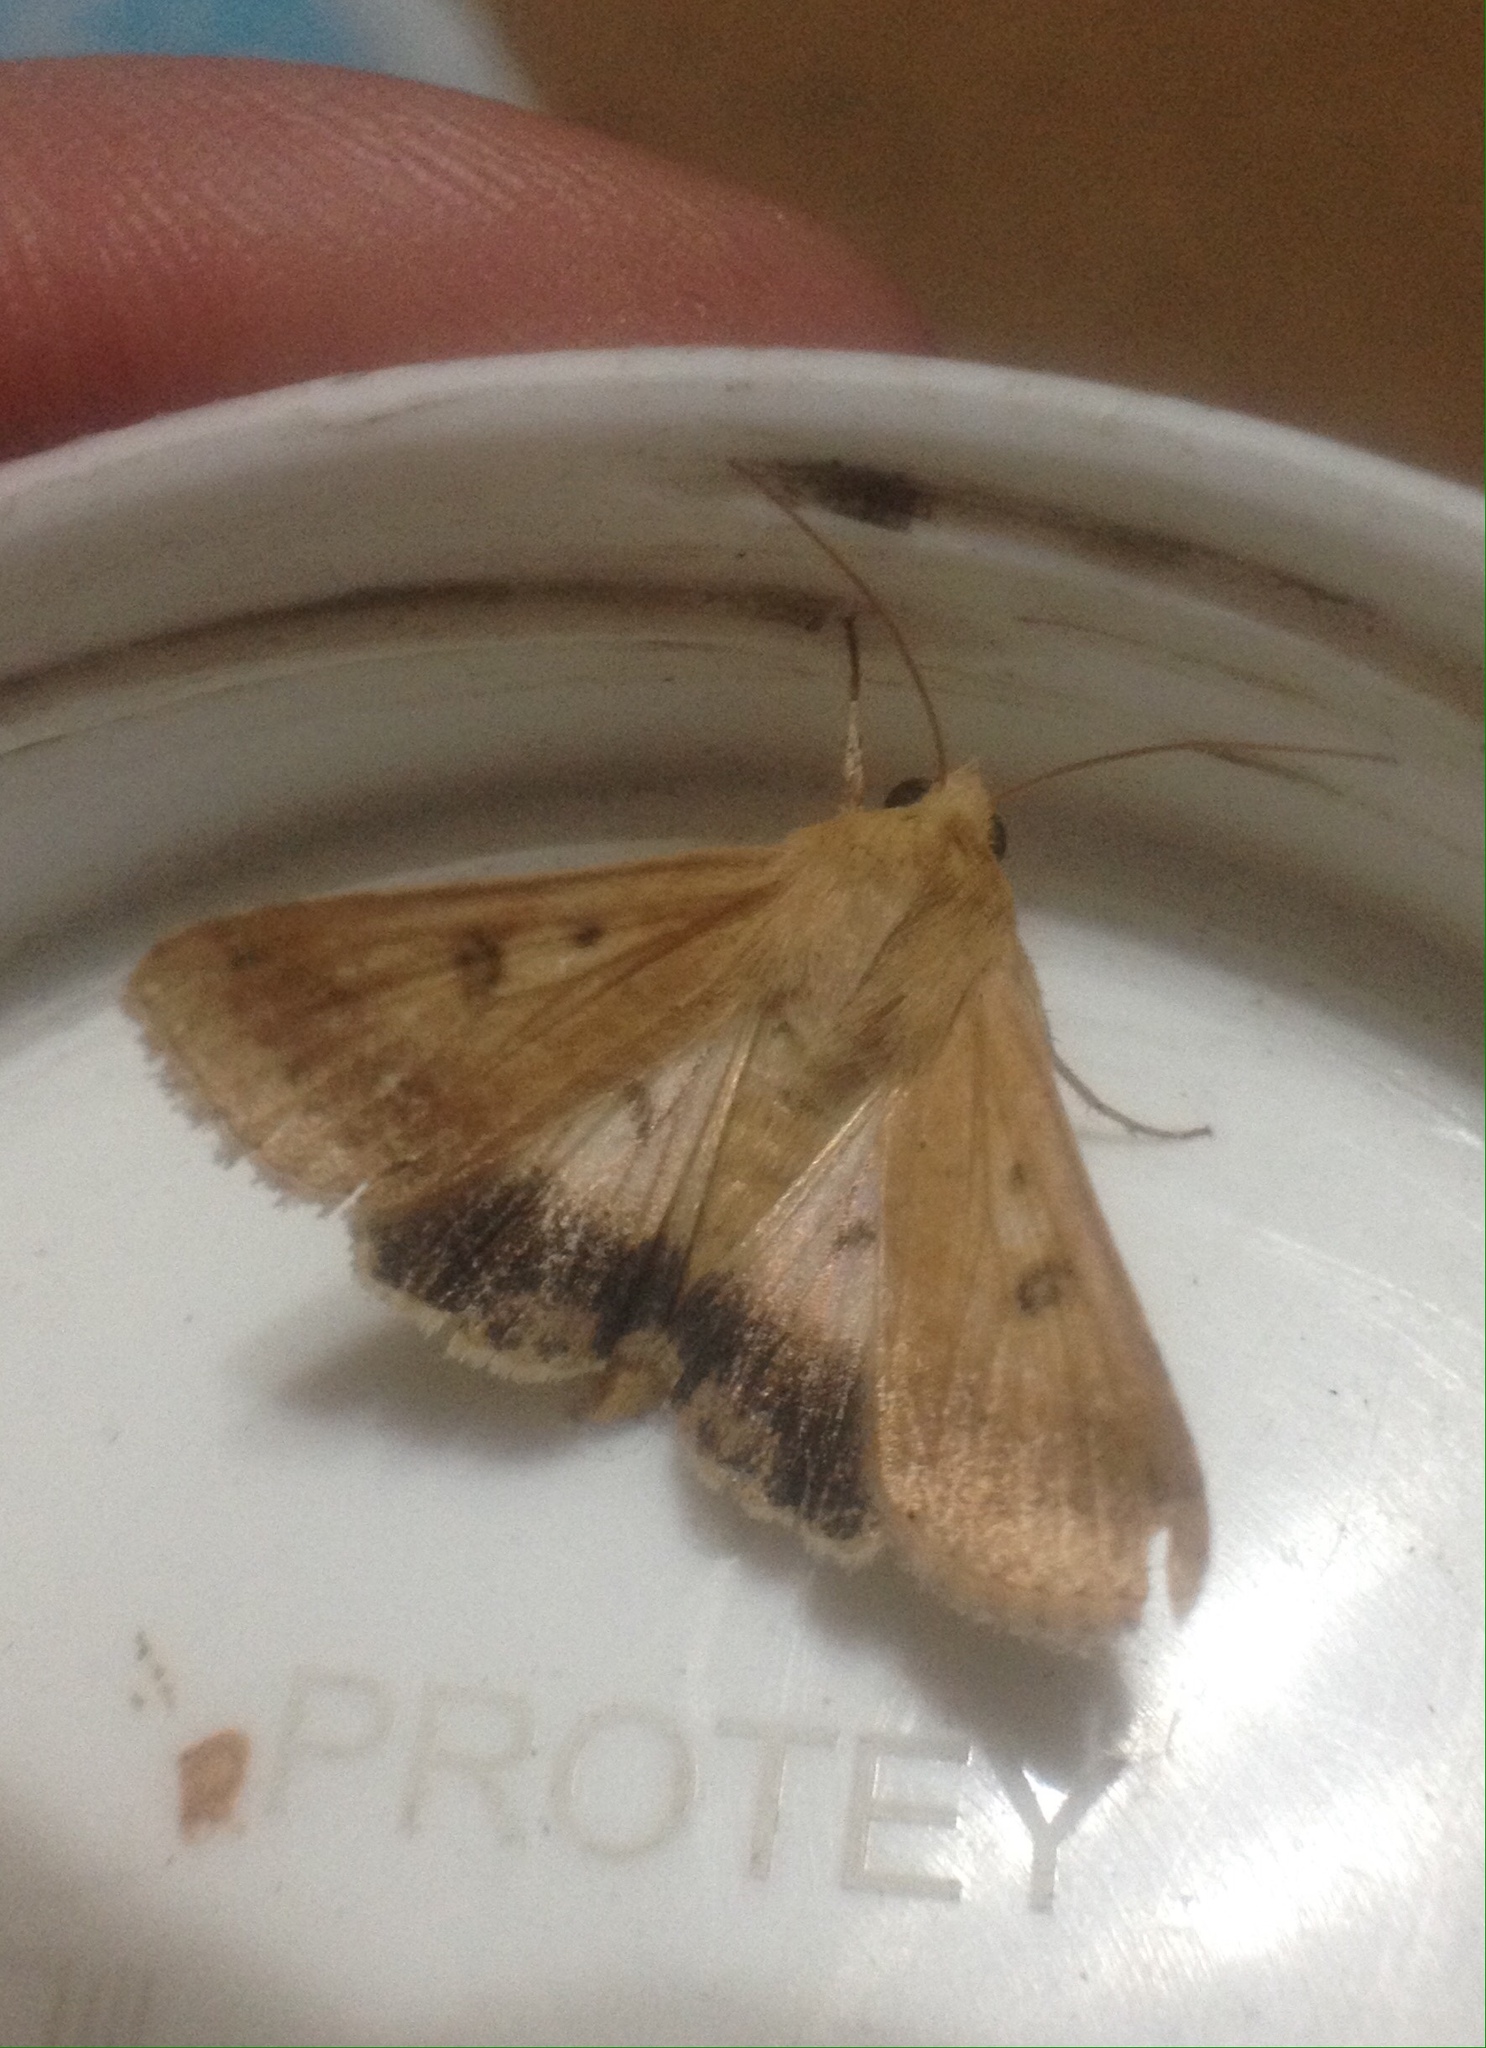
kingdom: Animalia
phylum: Arthropoda
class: Insecta
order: Lepidoptera
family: Noctuidae
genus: Helicoverpa
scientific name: Helicoverpa armigera
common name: Cotton bollworm
